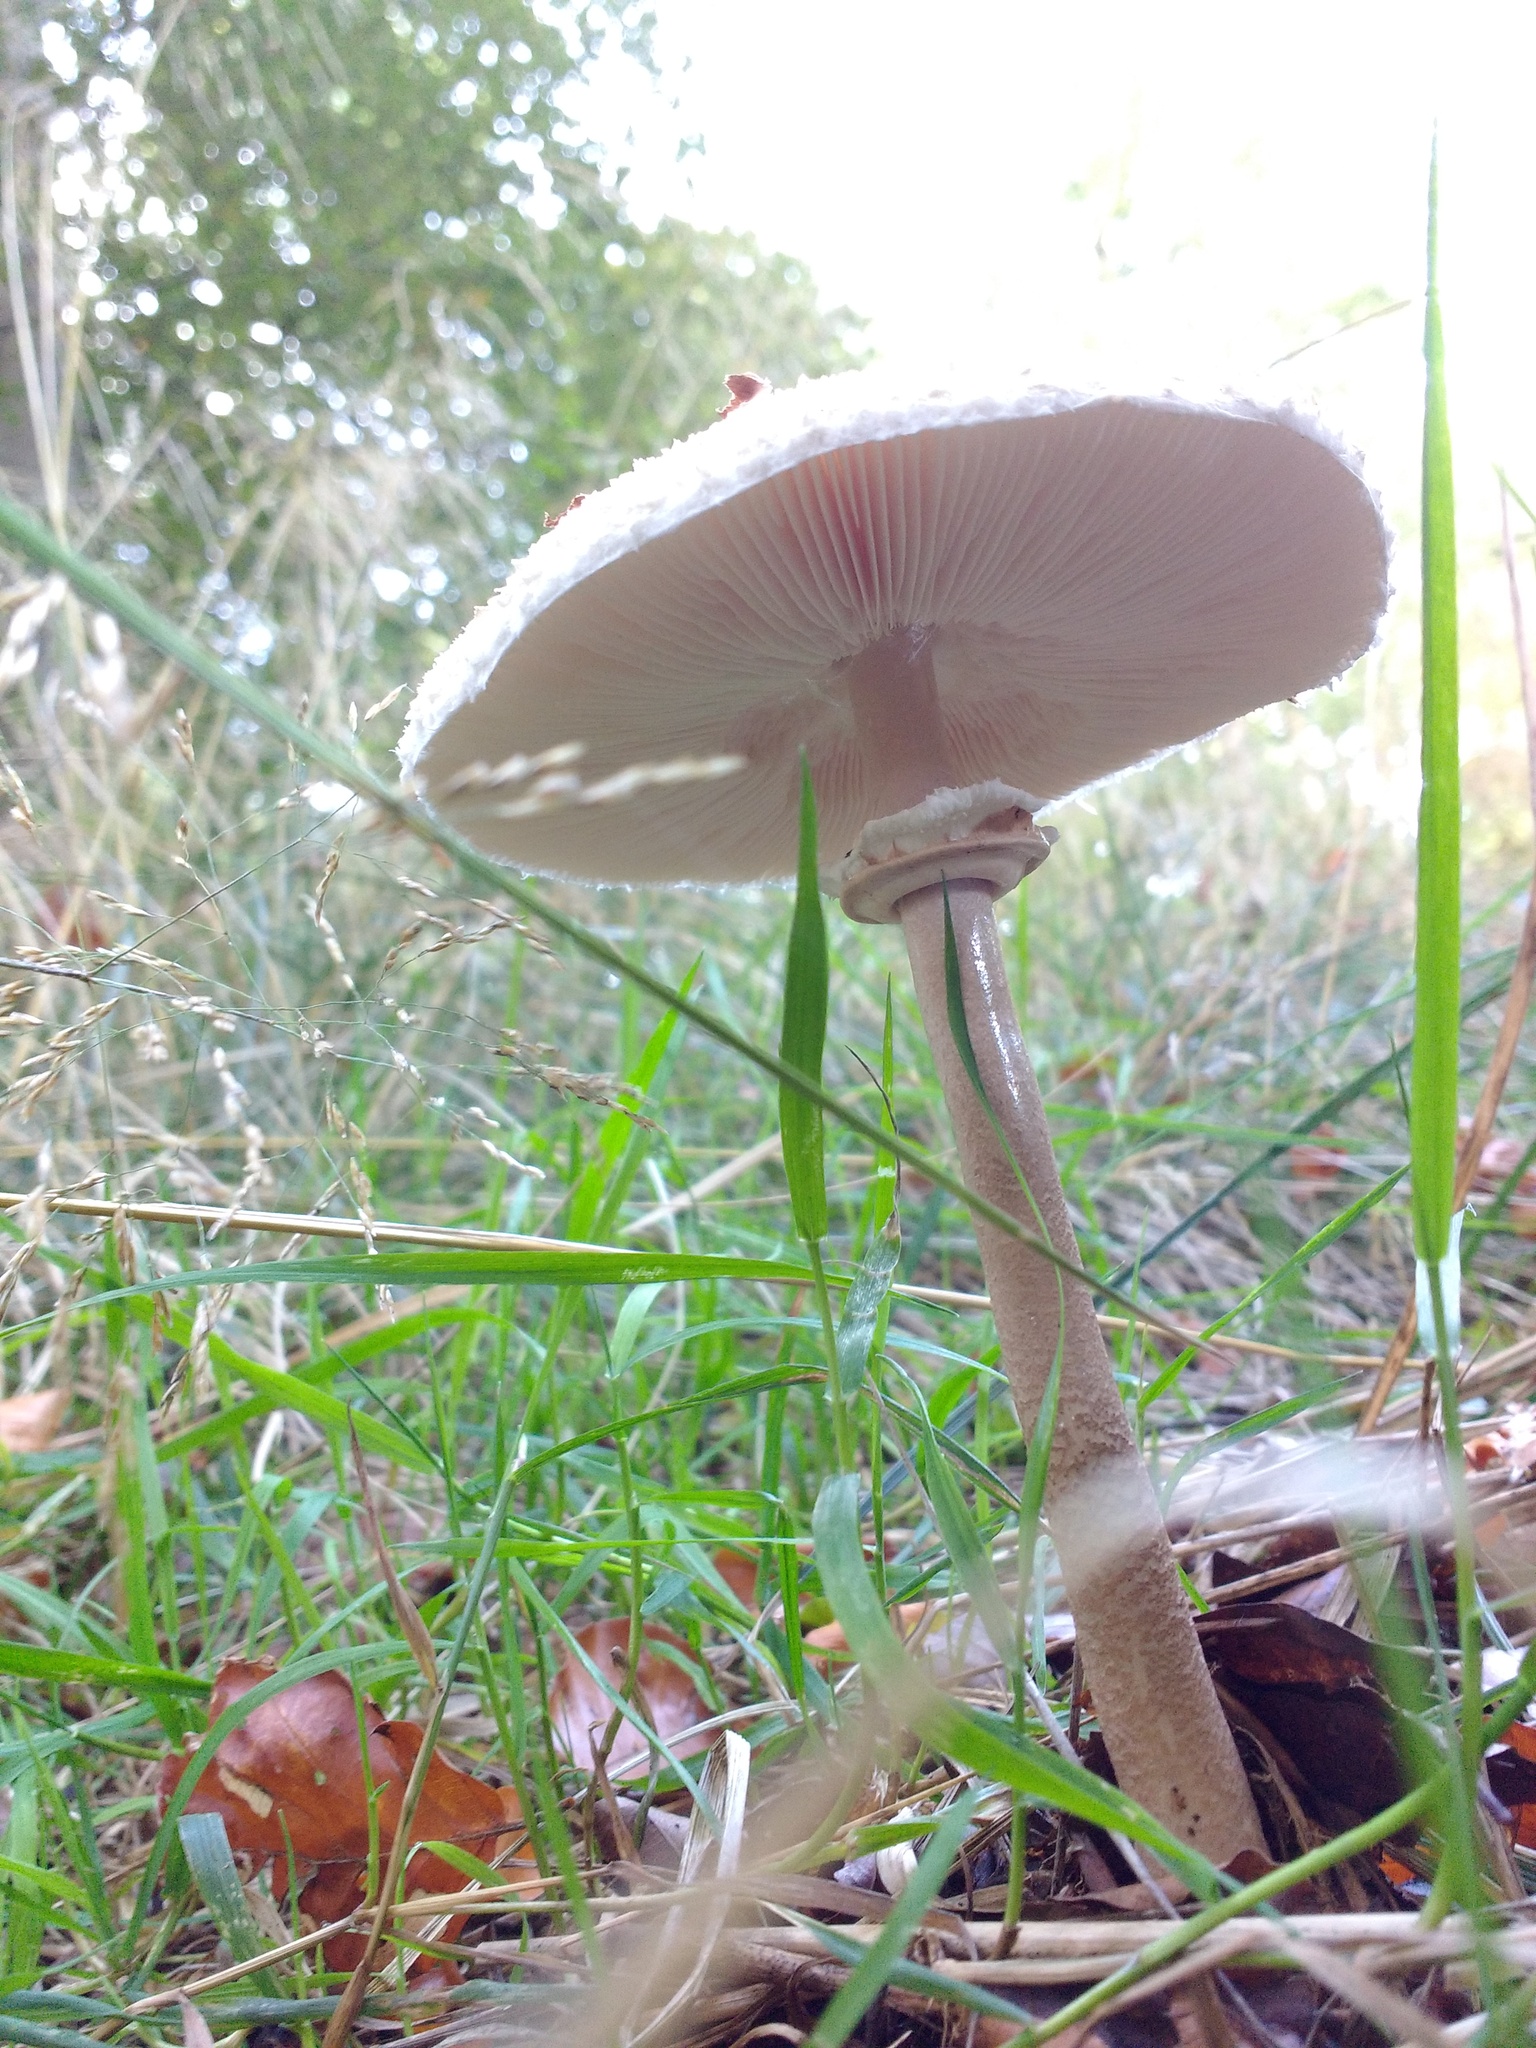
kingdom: Fungi
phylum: Basidiomycota
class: Agaricomycetes
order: Agaricales
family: Agaricaceae
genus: Macrolepiota
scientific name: Macrolepiota procera
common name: Parasol
